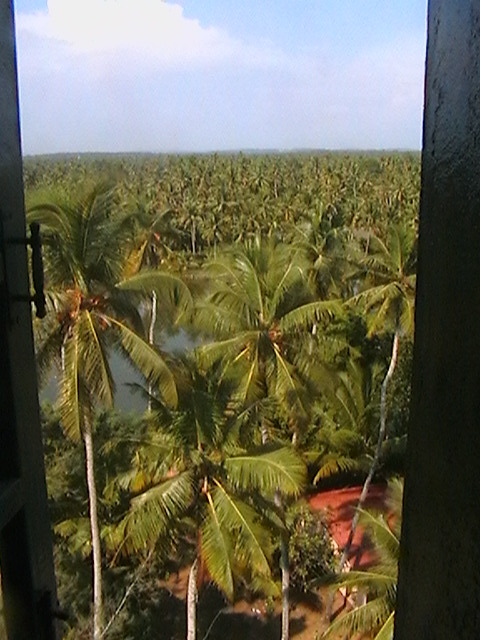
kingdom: Plantae
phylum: Tracheophyta
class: Liliopsida
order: Arecales
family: Arecaceae
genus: Cocos
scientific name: Cocos nucifera
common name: Coconut palm
